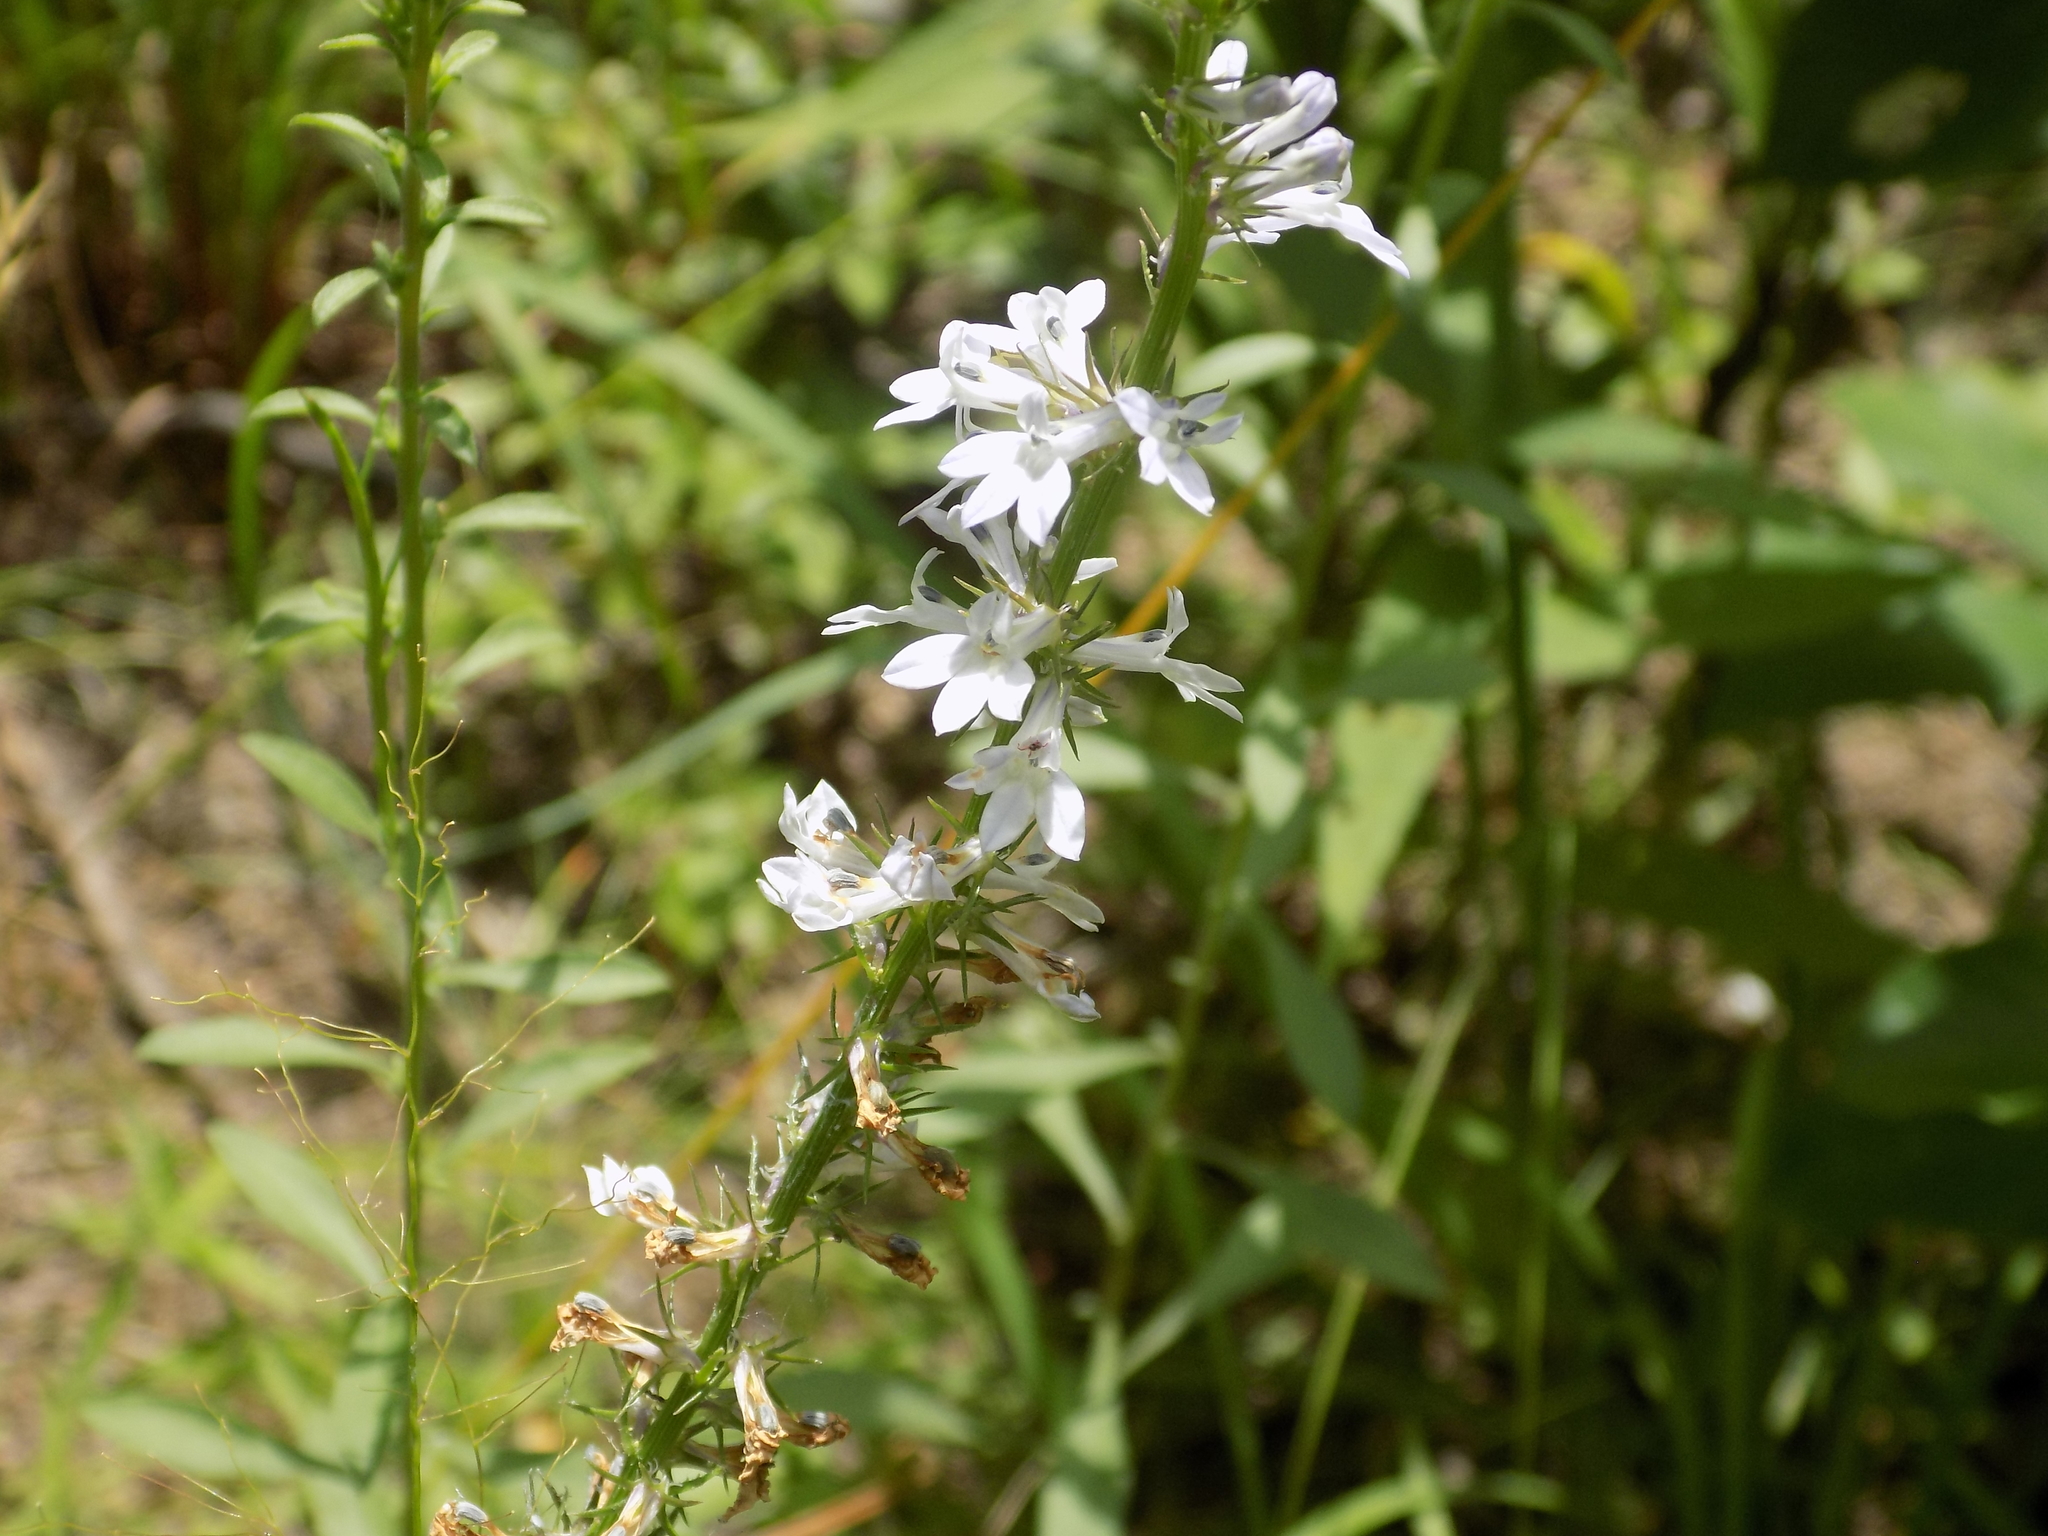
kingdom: Plantae
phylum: Tracheophyta
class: Magnoliopsida
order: Asterales
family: Campanulaceae
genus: Lobelia
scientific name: Lobelia spicata
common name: Pale-spike lobelia
